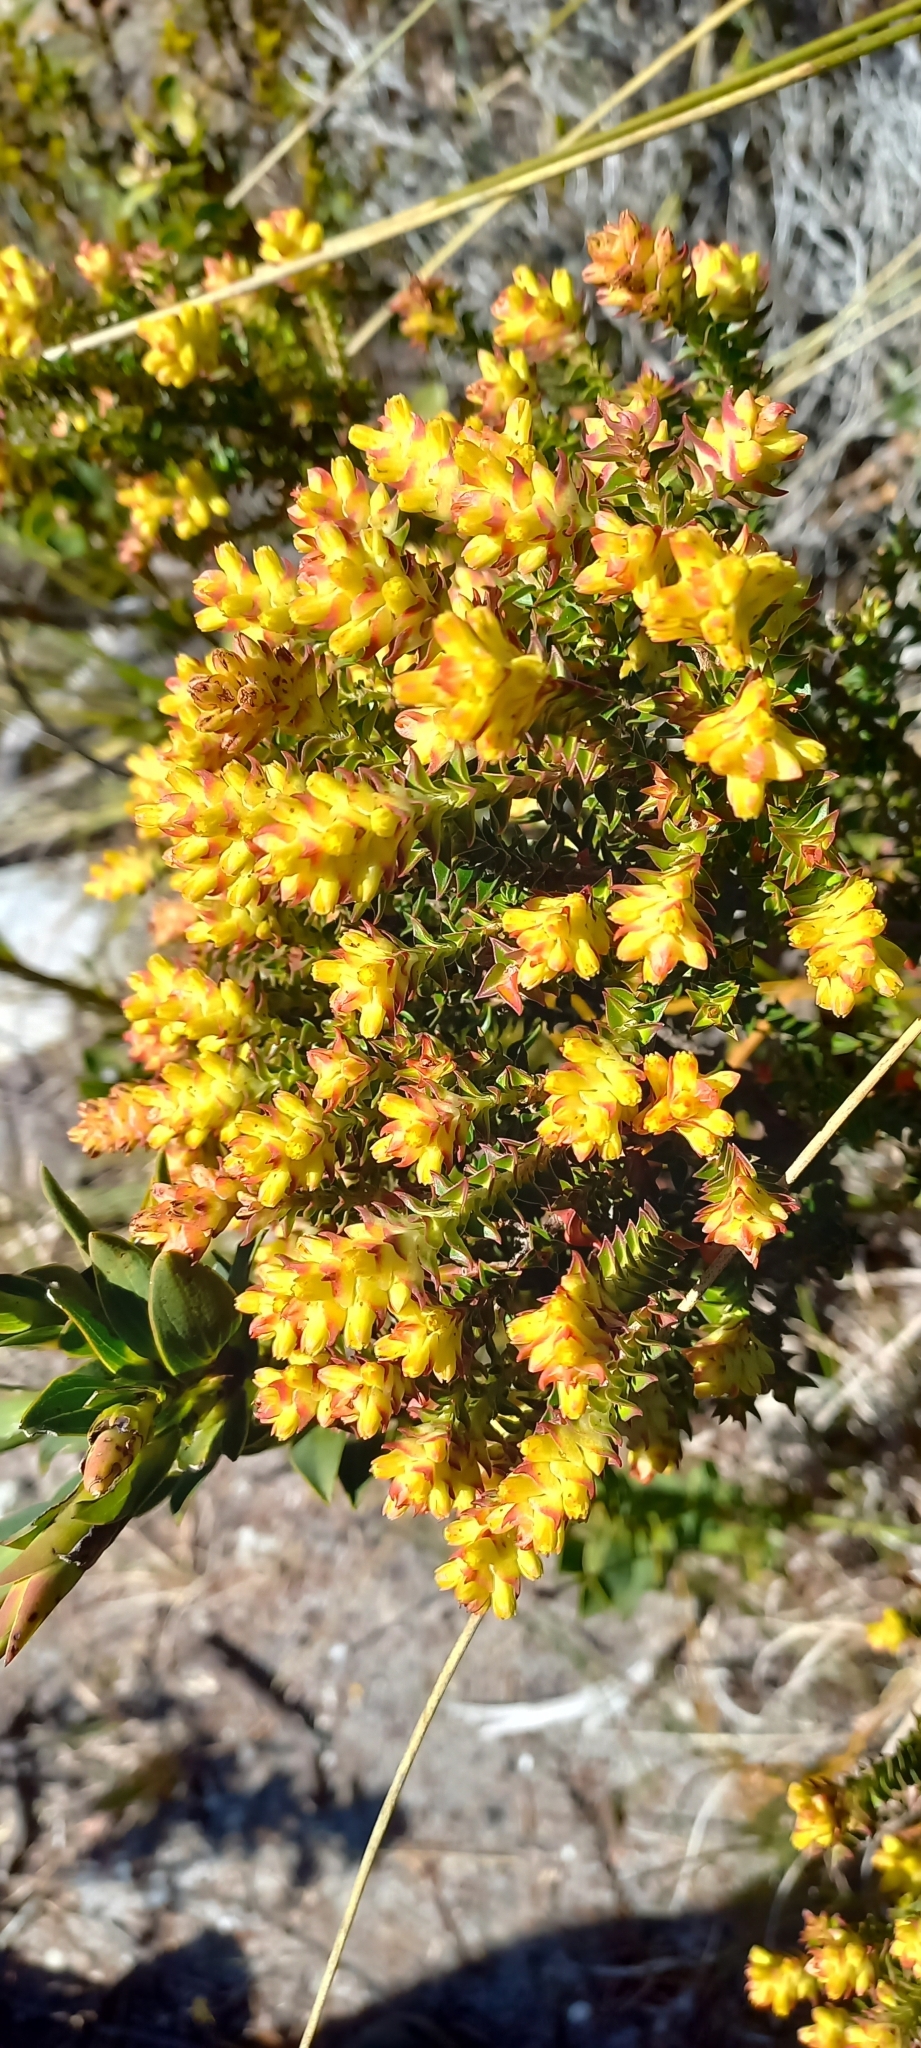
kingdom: Plantae
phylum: Tracheophyta
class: Magnoliopsida
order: Myrtales
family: Penaeaceae
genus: Penaea
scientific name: Penaea mucronata
